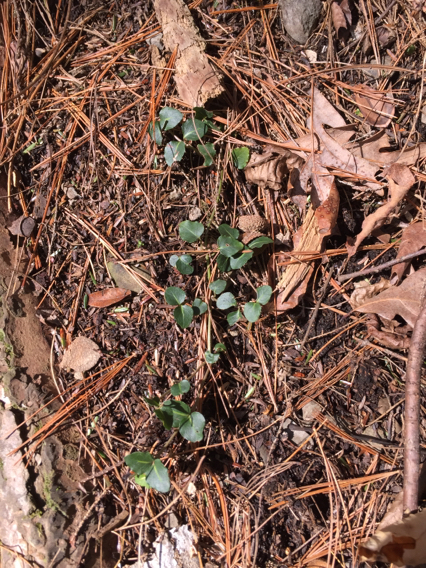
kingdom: Plantae
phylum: Tracheophyta
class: Magnoliopsida
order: Gentianales
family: Rubiaceae
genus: Mitchella
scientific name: Mitchella repens
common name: Partridge-berry
